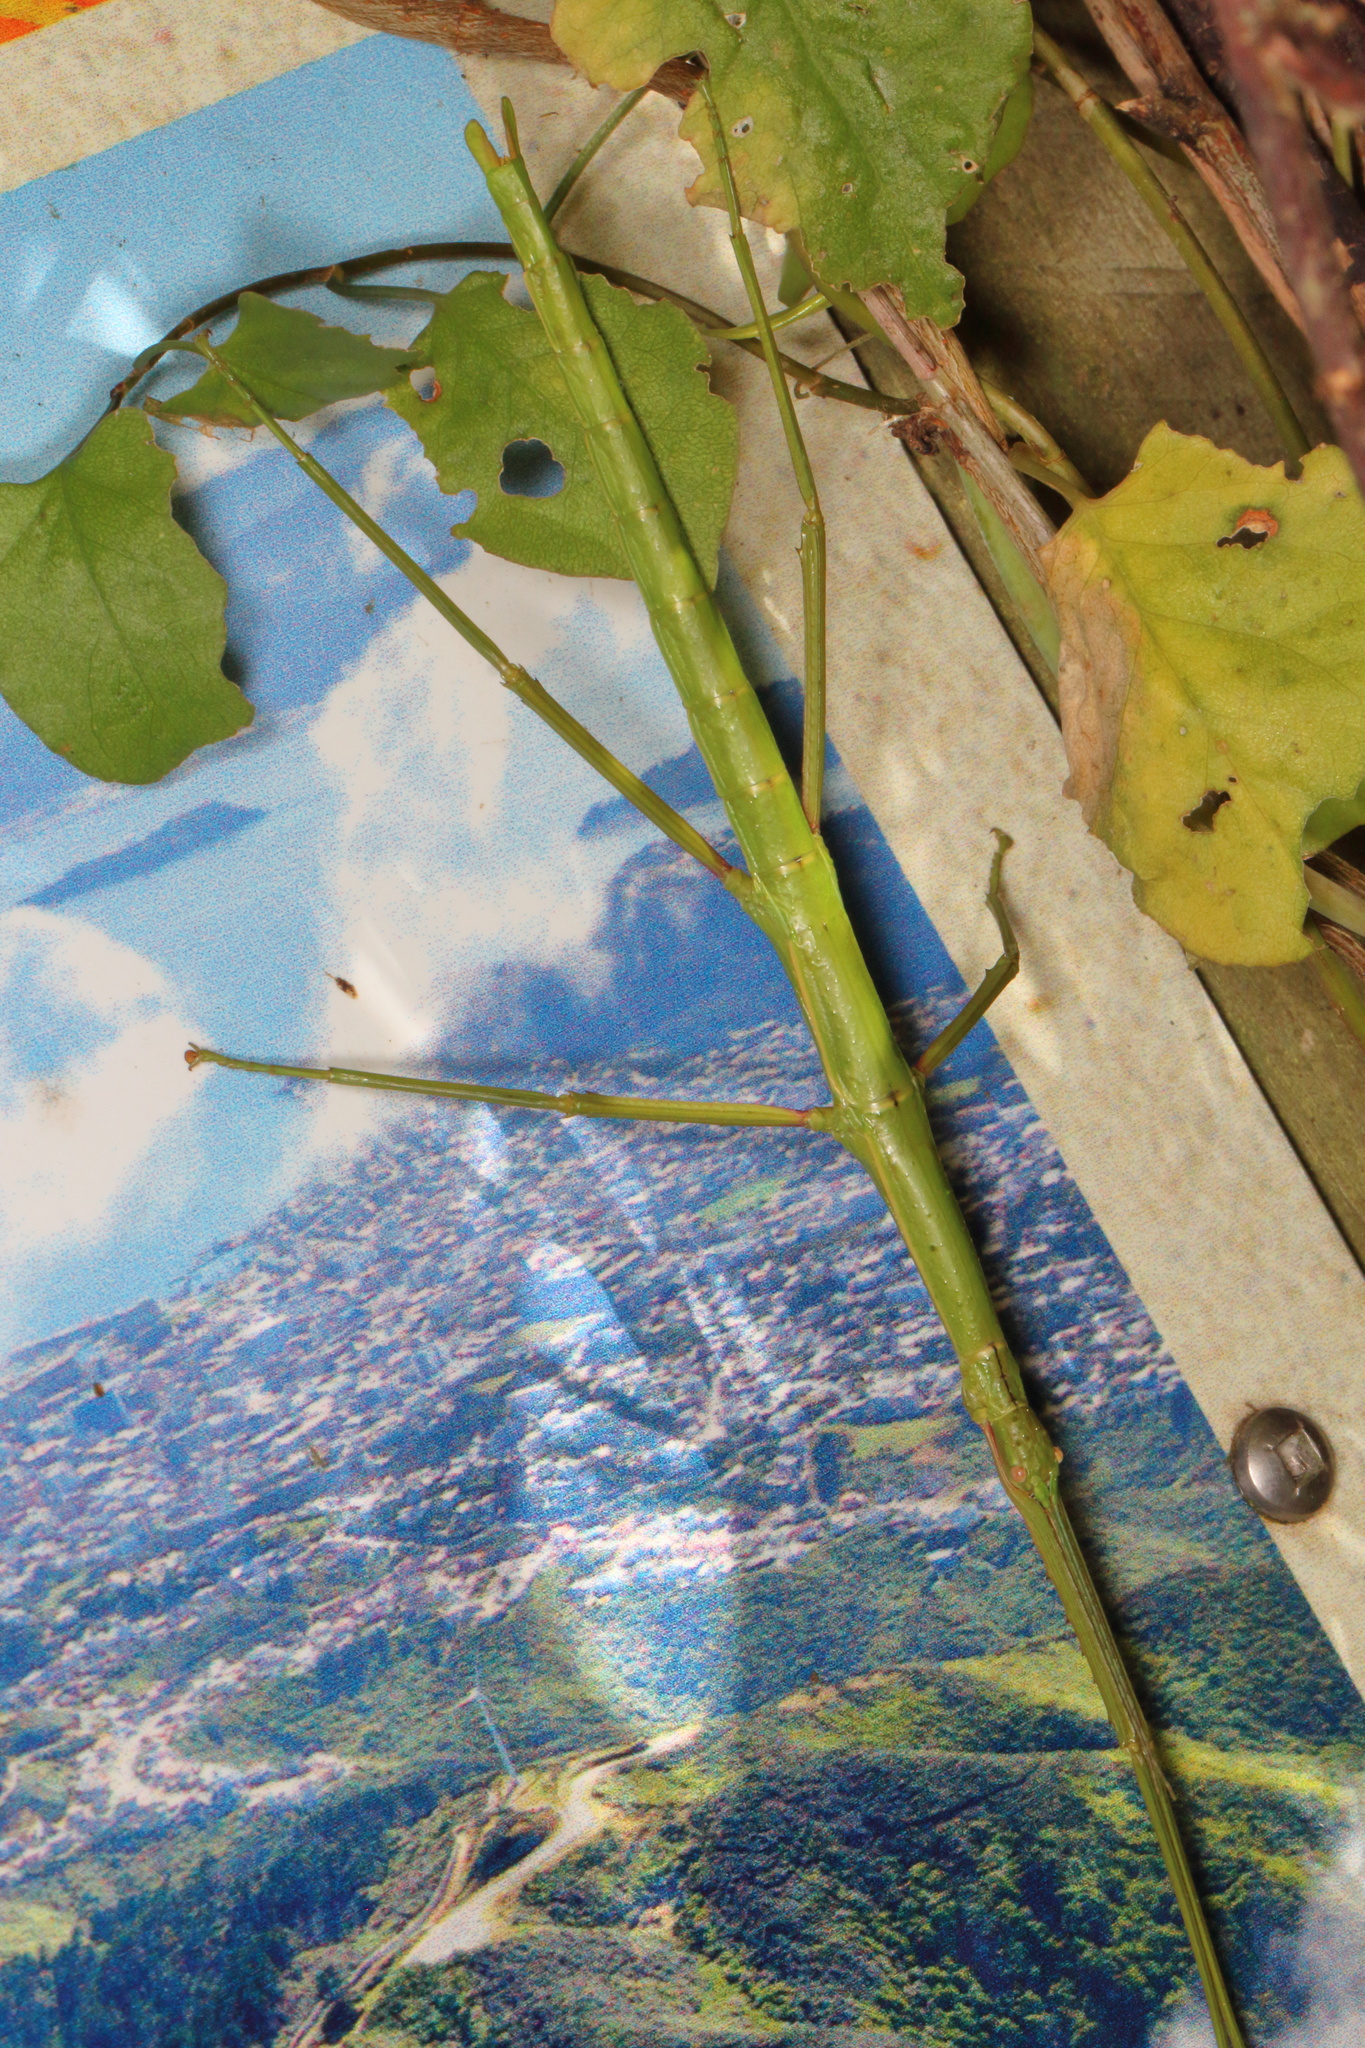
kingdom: Animalia
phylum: Arthropoda
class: Insecta
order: Phasmida
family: Phasmatidae
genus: Acanthoxyla
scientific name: Acanthoxyla inermis
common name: Unarmed stick insect
